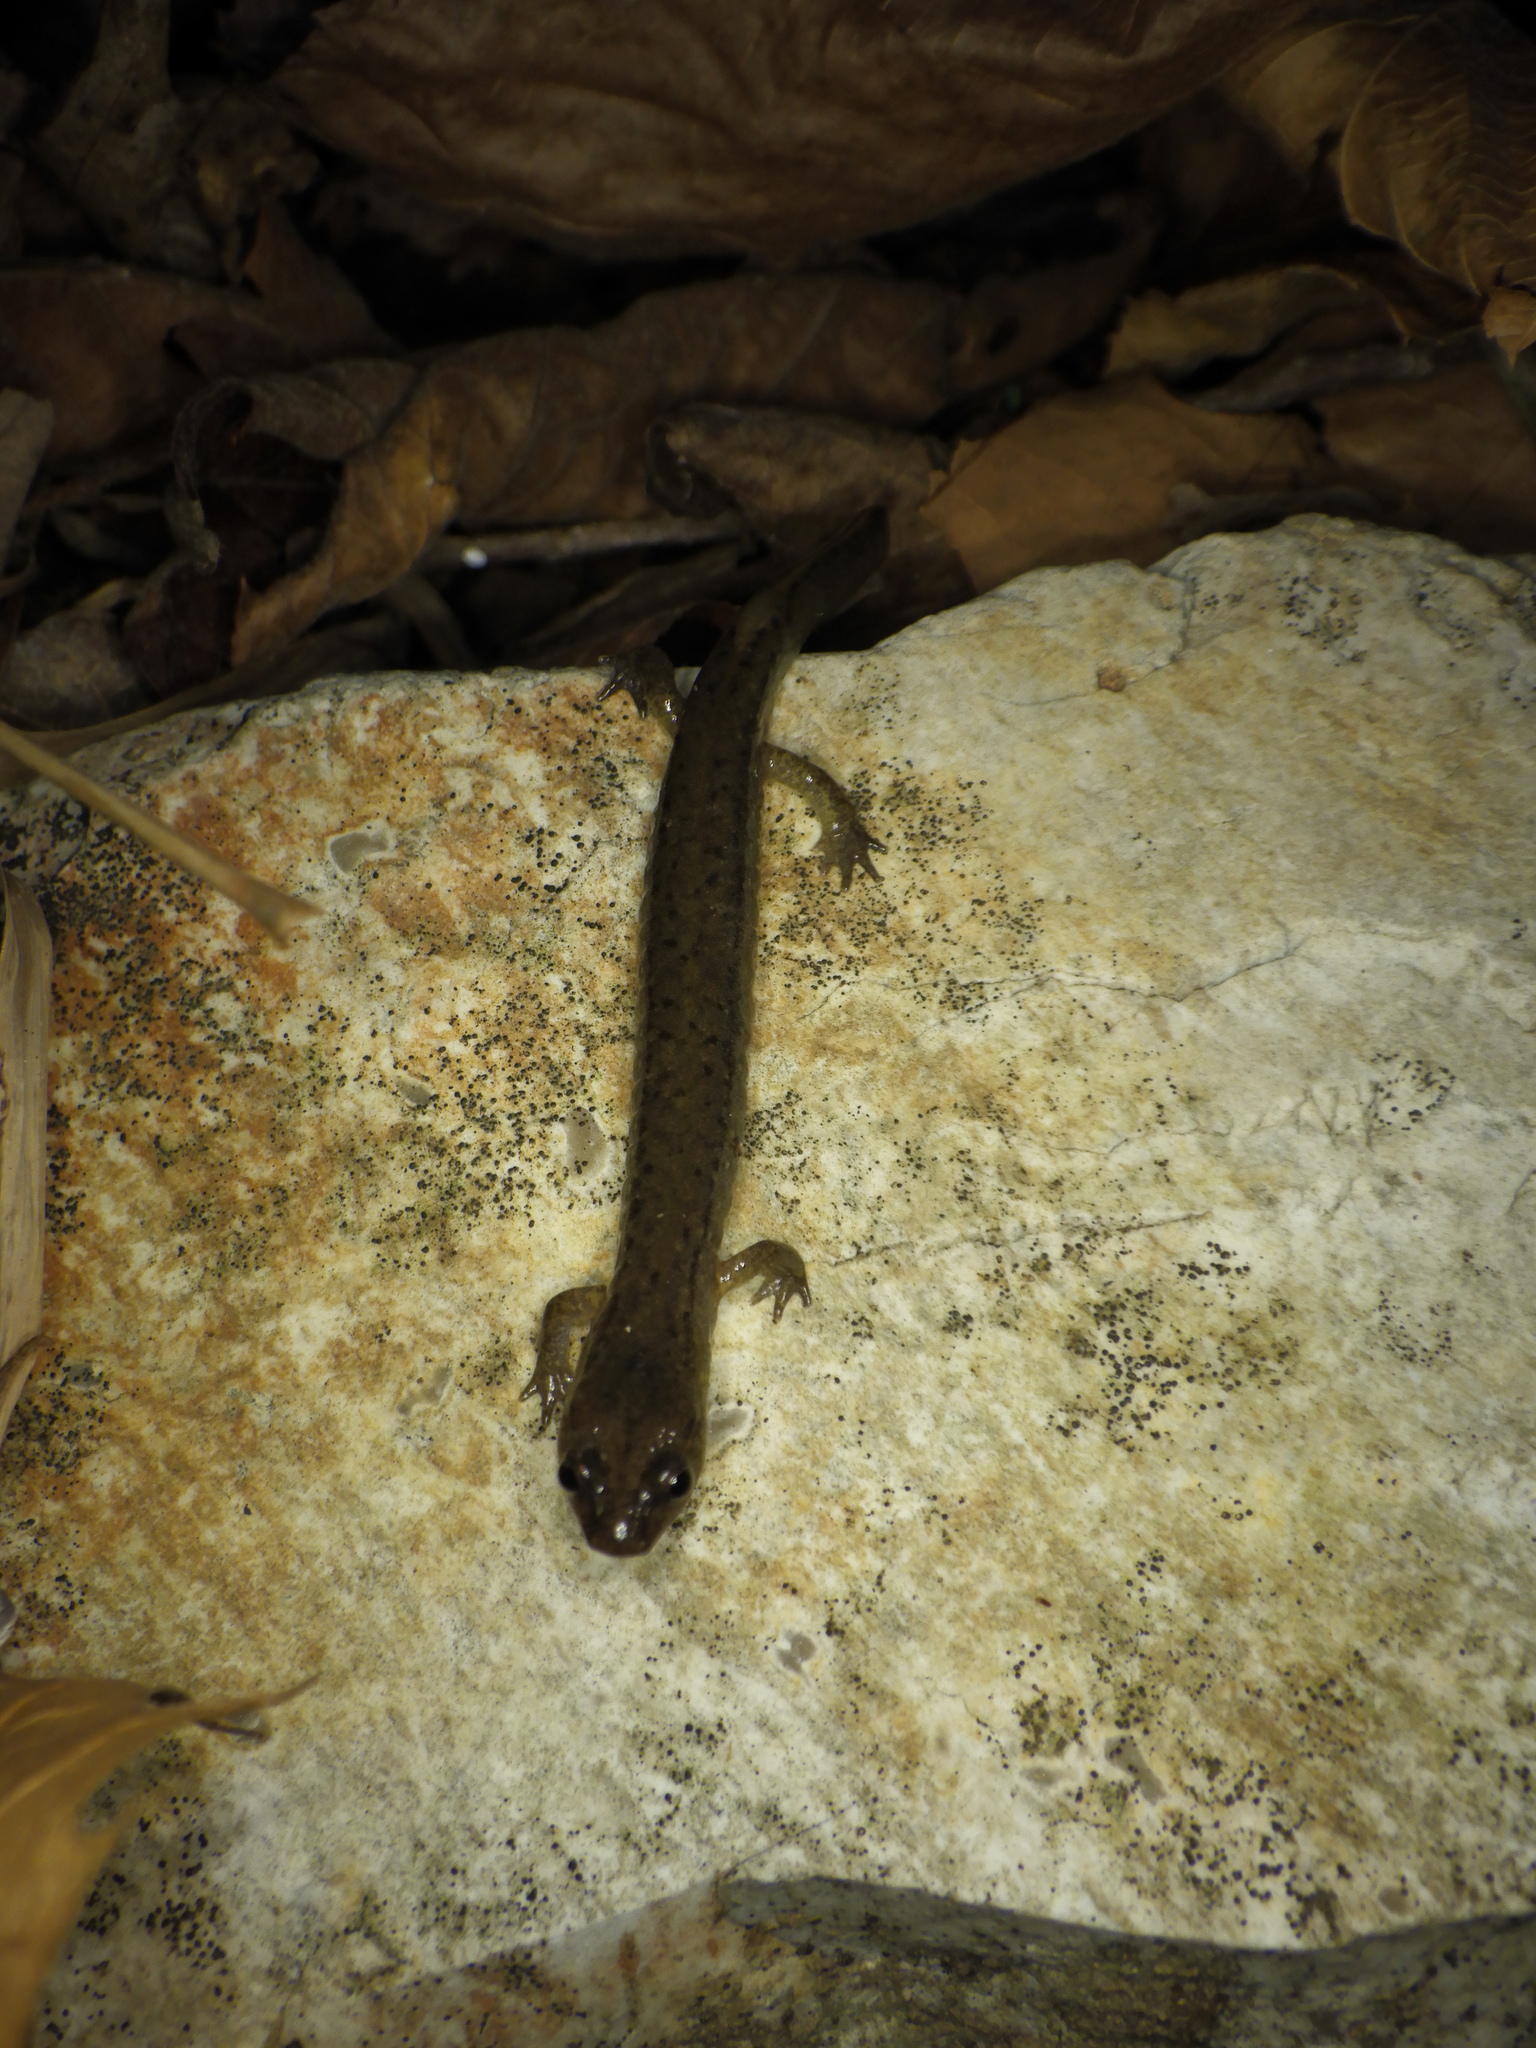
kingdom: Animalia
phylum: Chordata
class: Amphibia
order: Caudata
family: Plethodontidae
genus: Eurycea
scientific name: Eurycea tynerensis
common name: Oklahoma salamander
